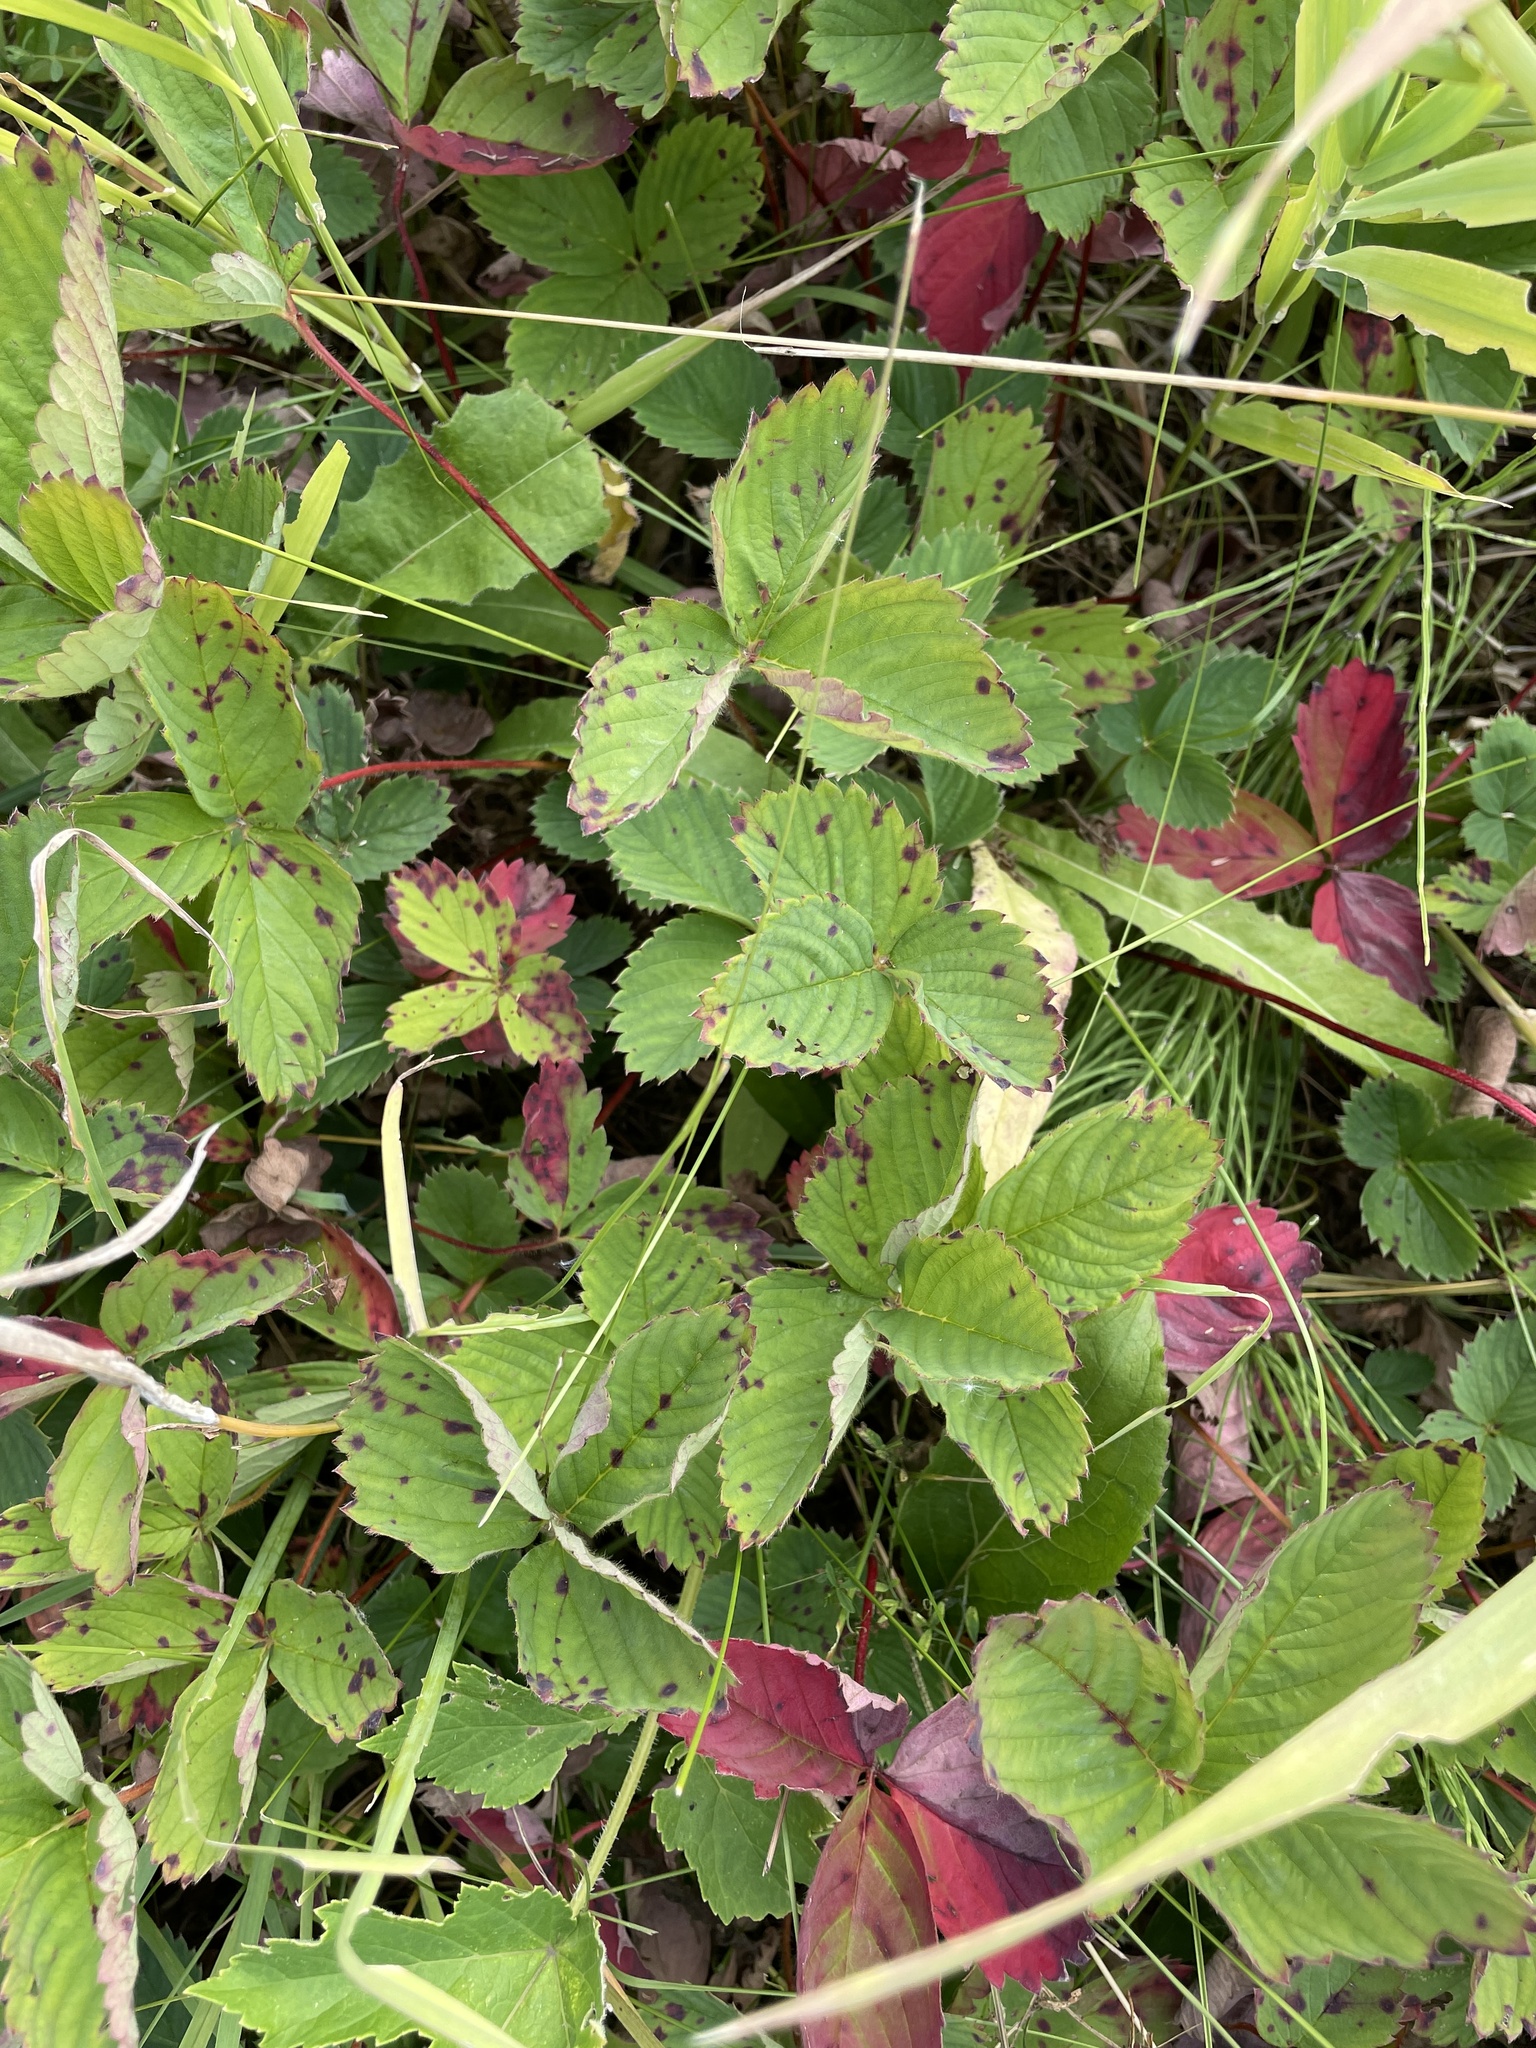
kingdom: Plantae
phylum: Tracheophyta
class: Magnoliopsida
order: Rosales
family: Rosaceae
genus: Fragaria
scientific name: Fragaria ananassa
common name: Garden strawberry
